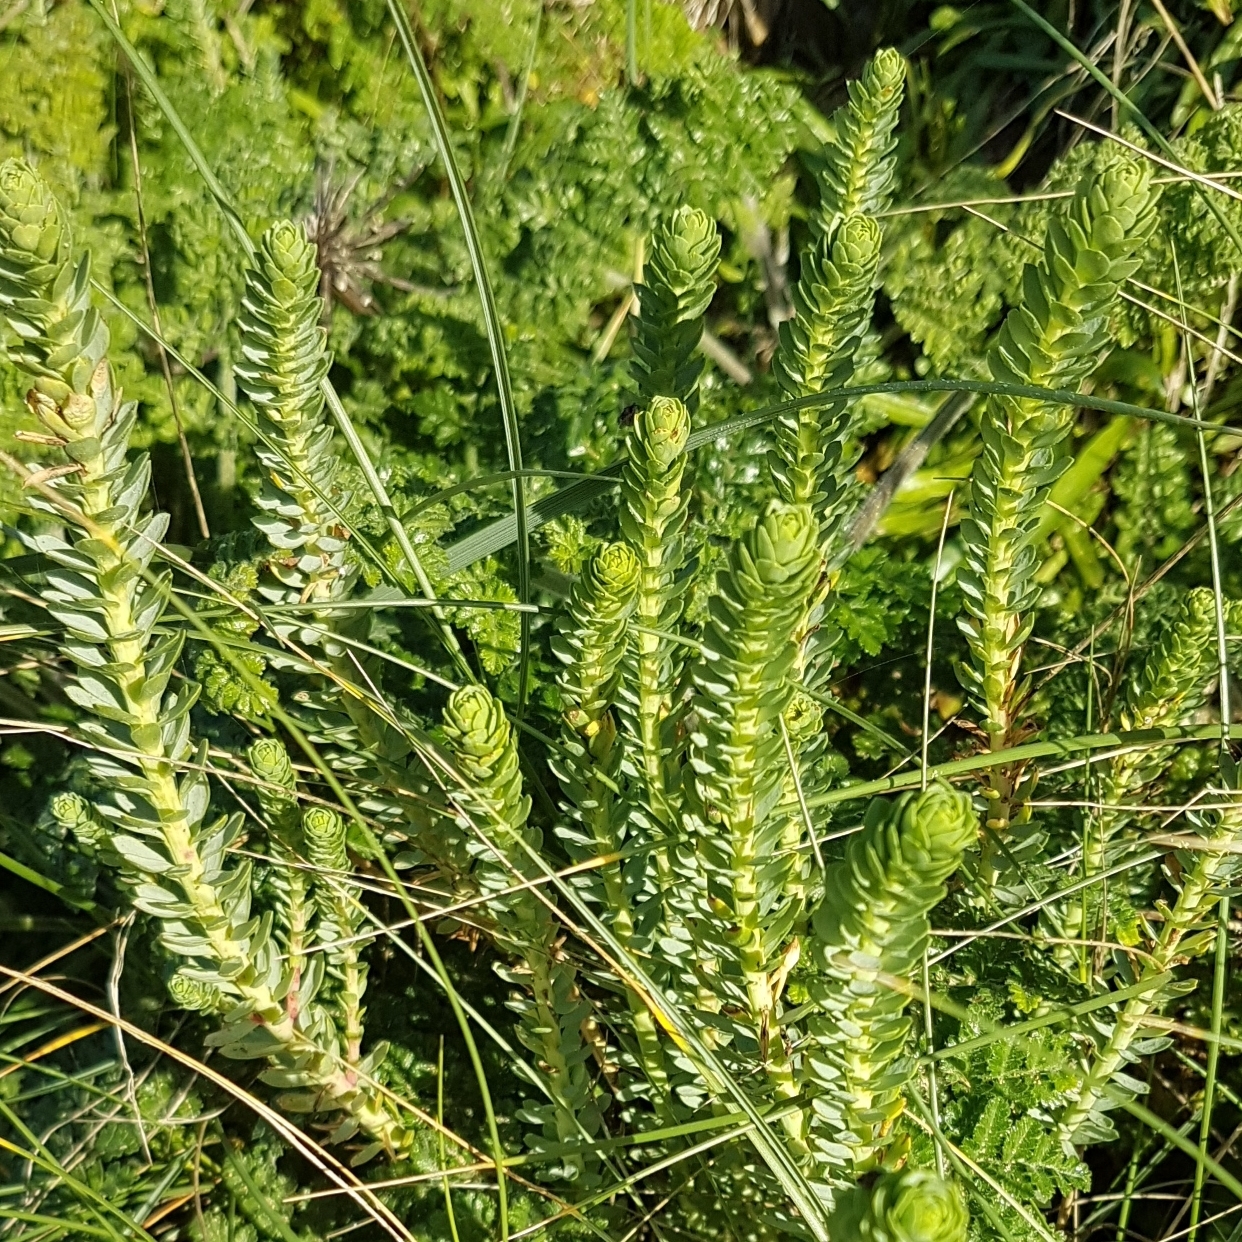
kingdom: Plantae
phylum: Tracheophyta
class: Magnoliopsida
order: Malpighiales
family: Euphorbiaceae
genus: Euphorbia
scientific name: Euphorbia paralias
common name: Sea spurge
